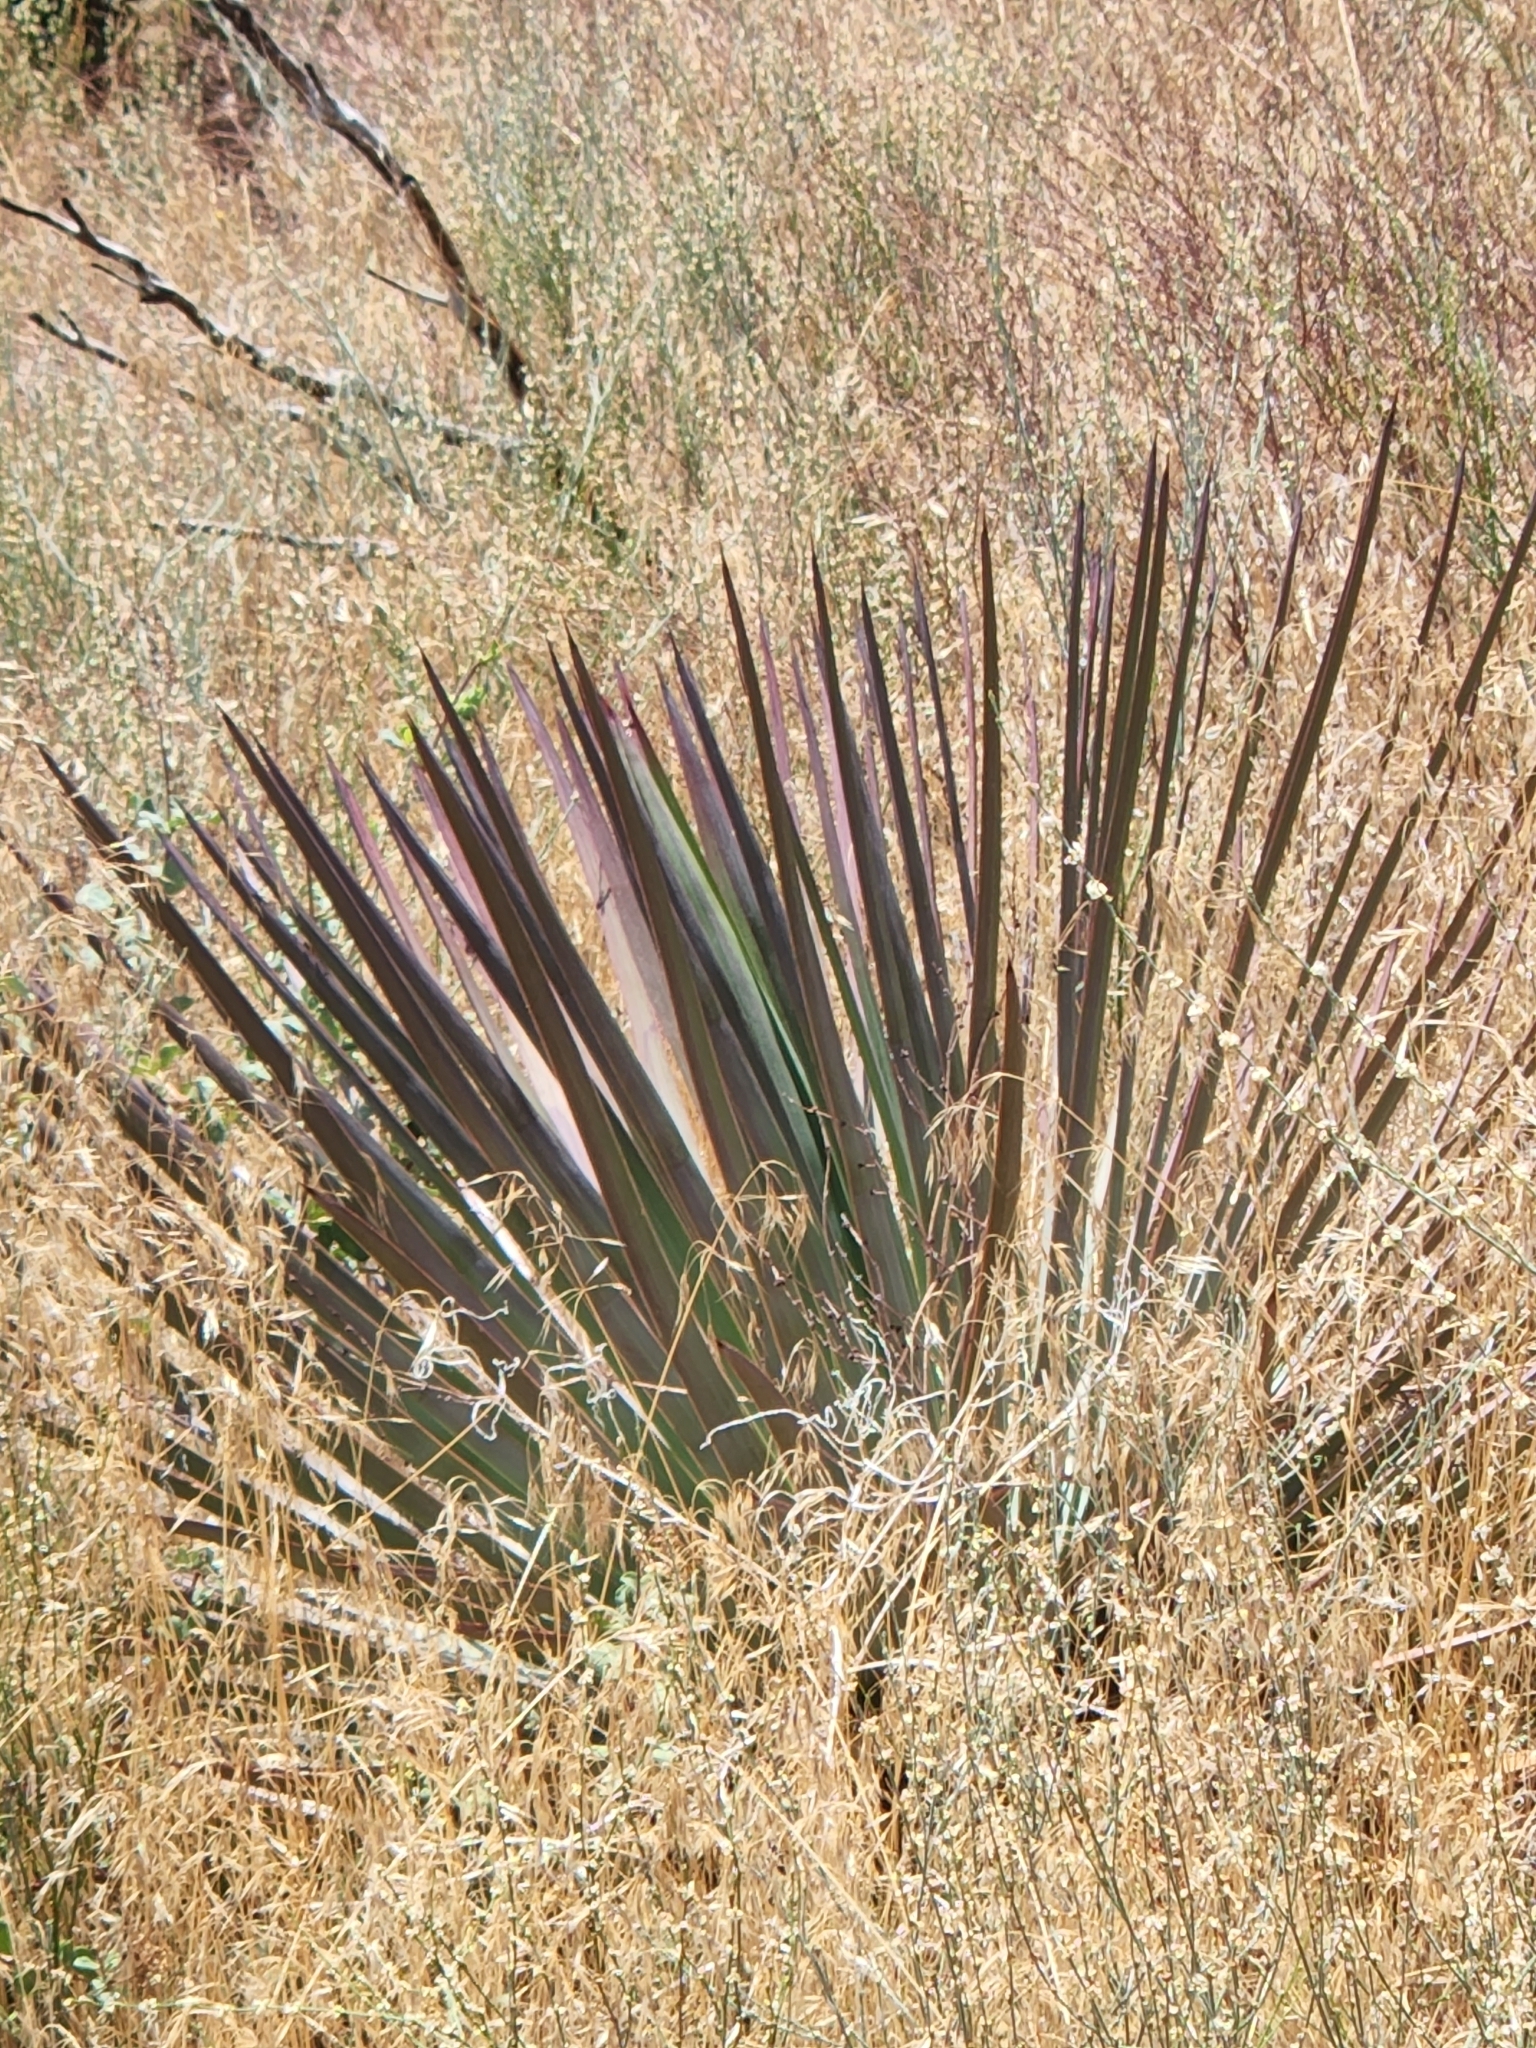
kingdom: Plantae
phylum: Tracheophyta
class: Liliopsida
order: Asparagales
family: Asparagaceae
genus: Hesperoyucca
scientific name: Hesperoyucca whipplei
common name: Our lord's-candle
